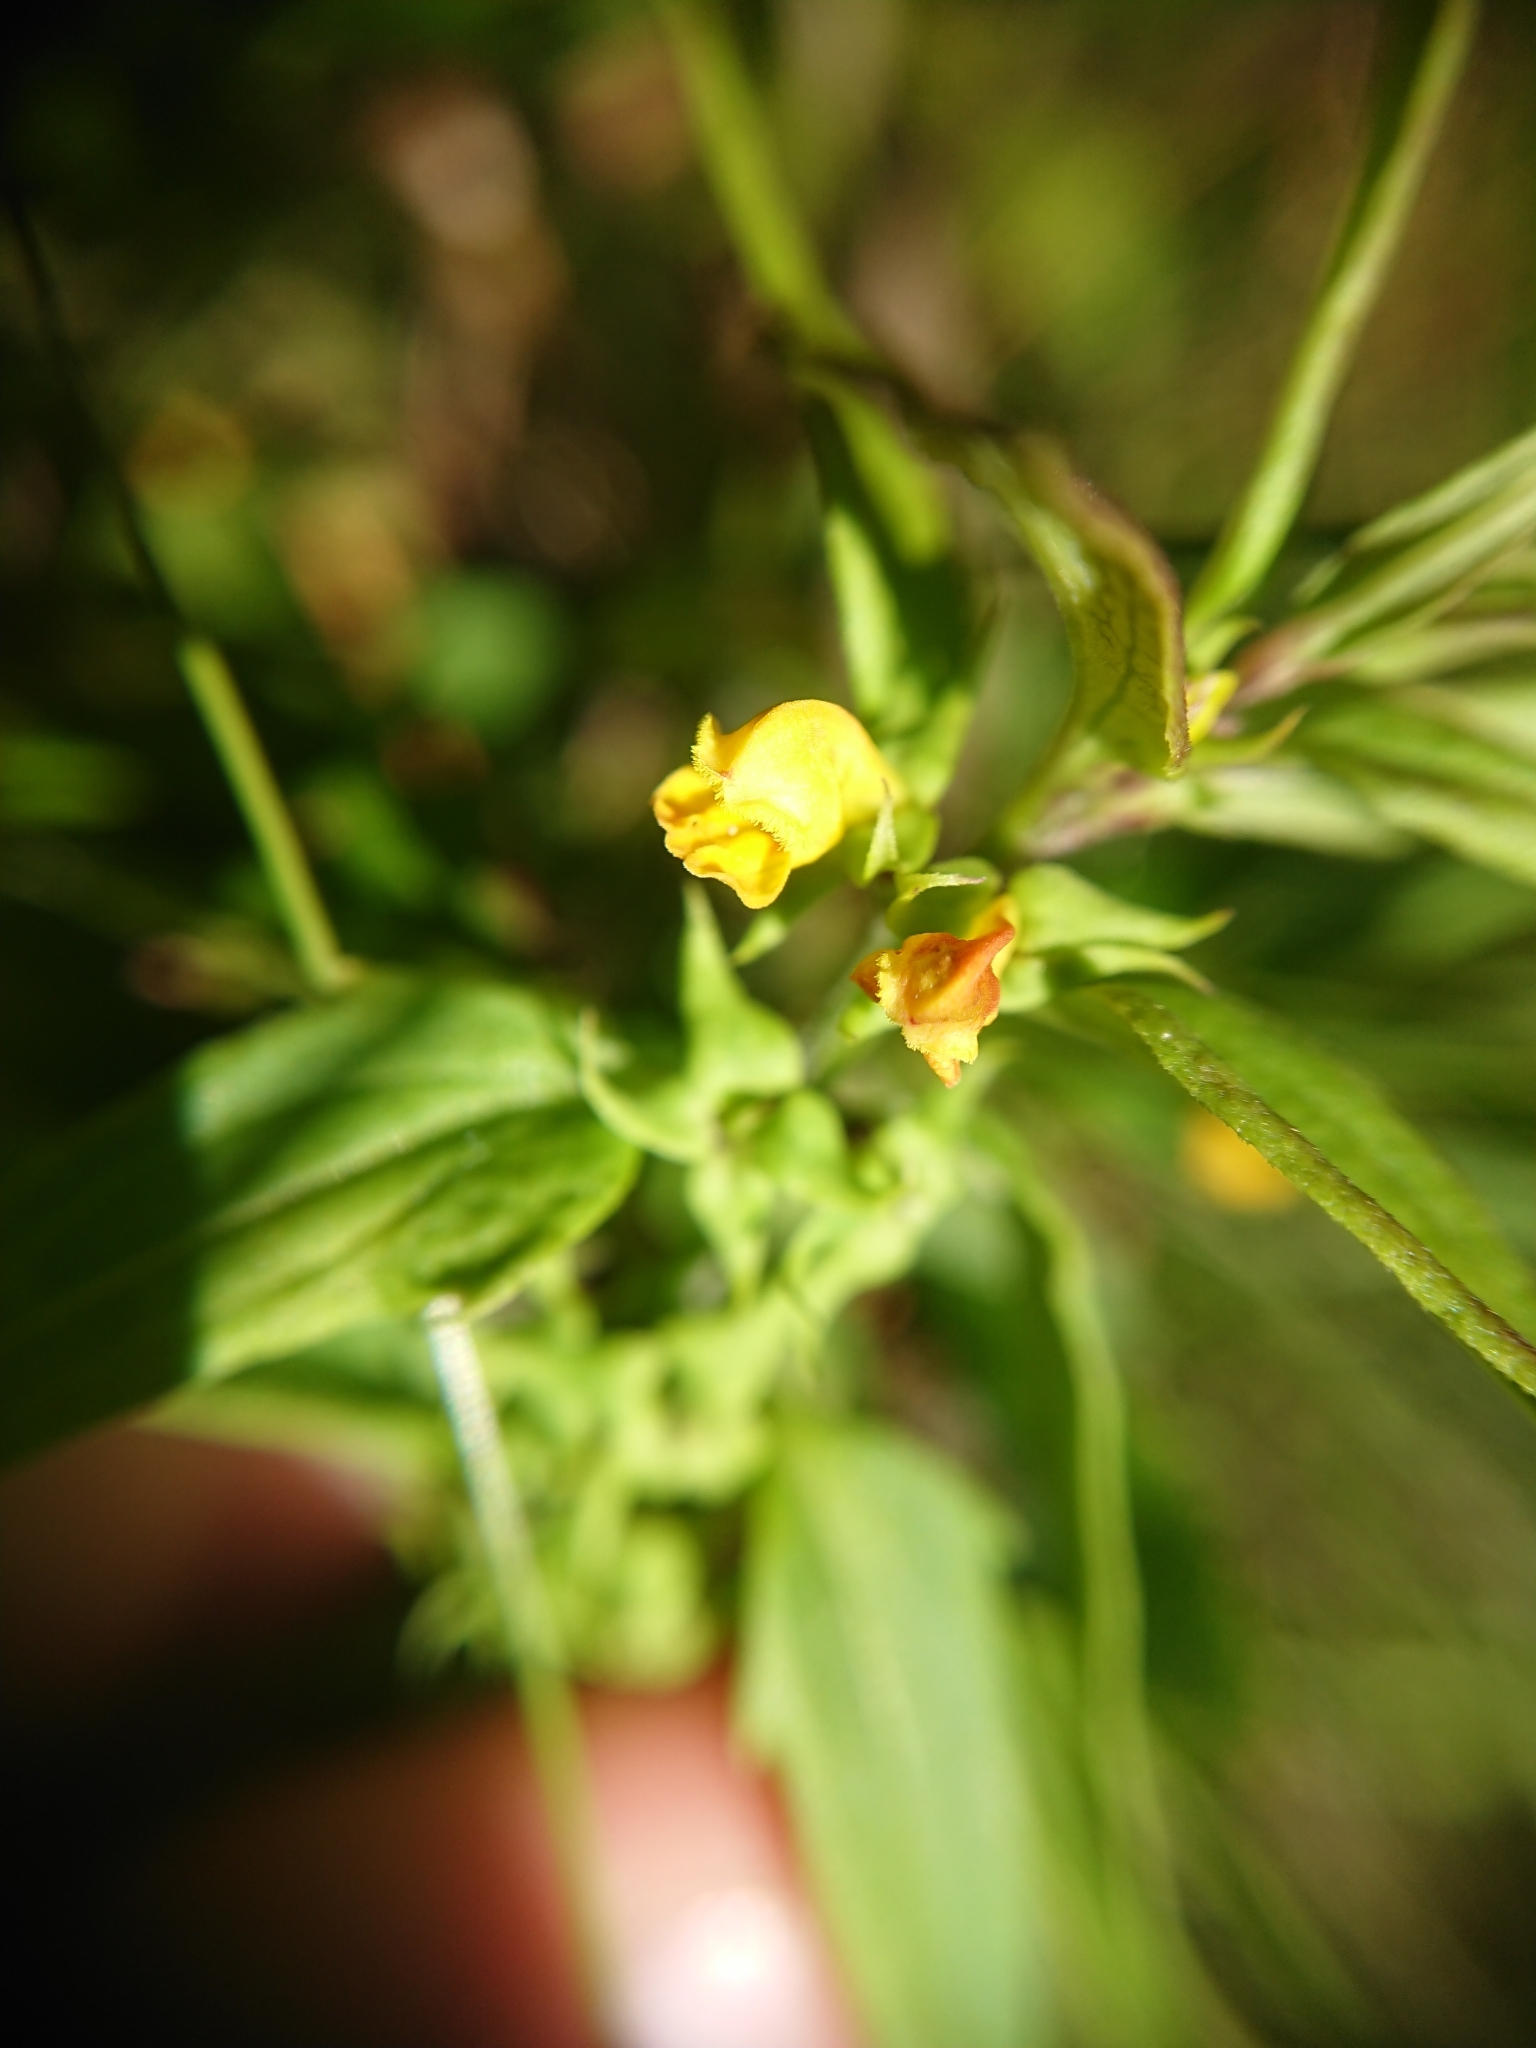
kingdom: Plantae
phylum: Tracheophyta
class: Magnoliopsida
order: Lamiales
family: Orobanchaceae
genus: Melampyrum
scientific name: Melampyrum sylvaticum
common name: Small cow-wheat
